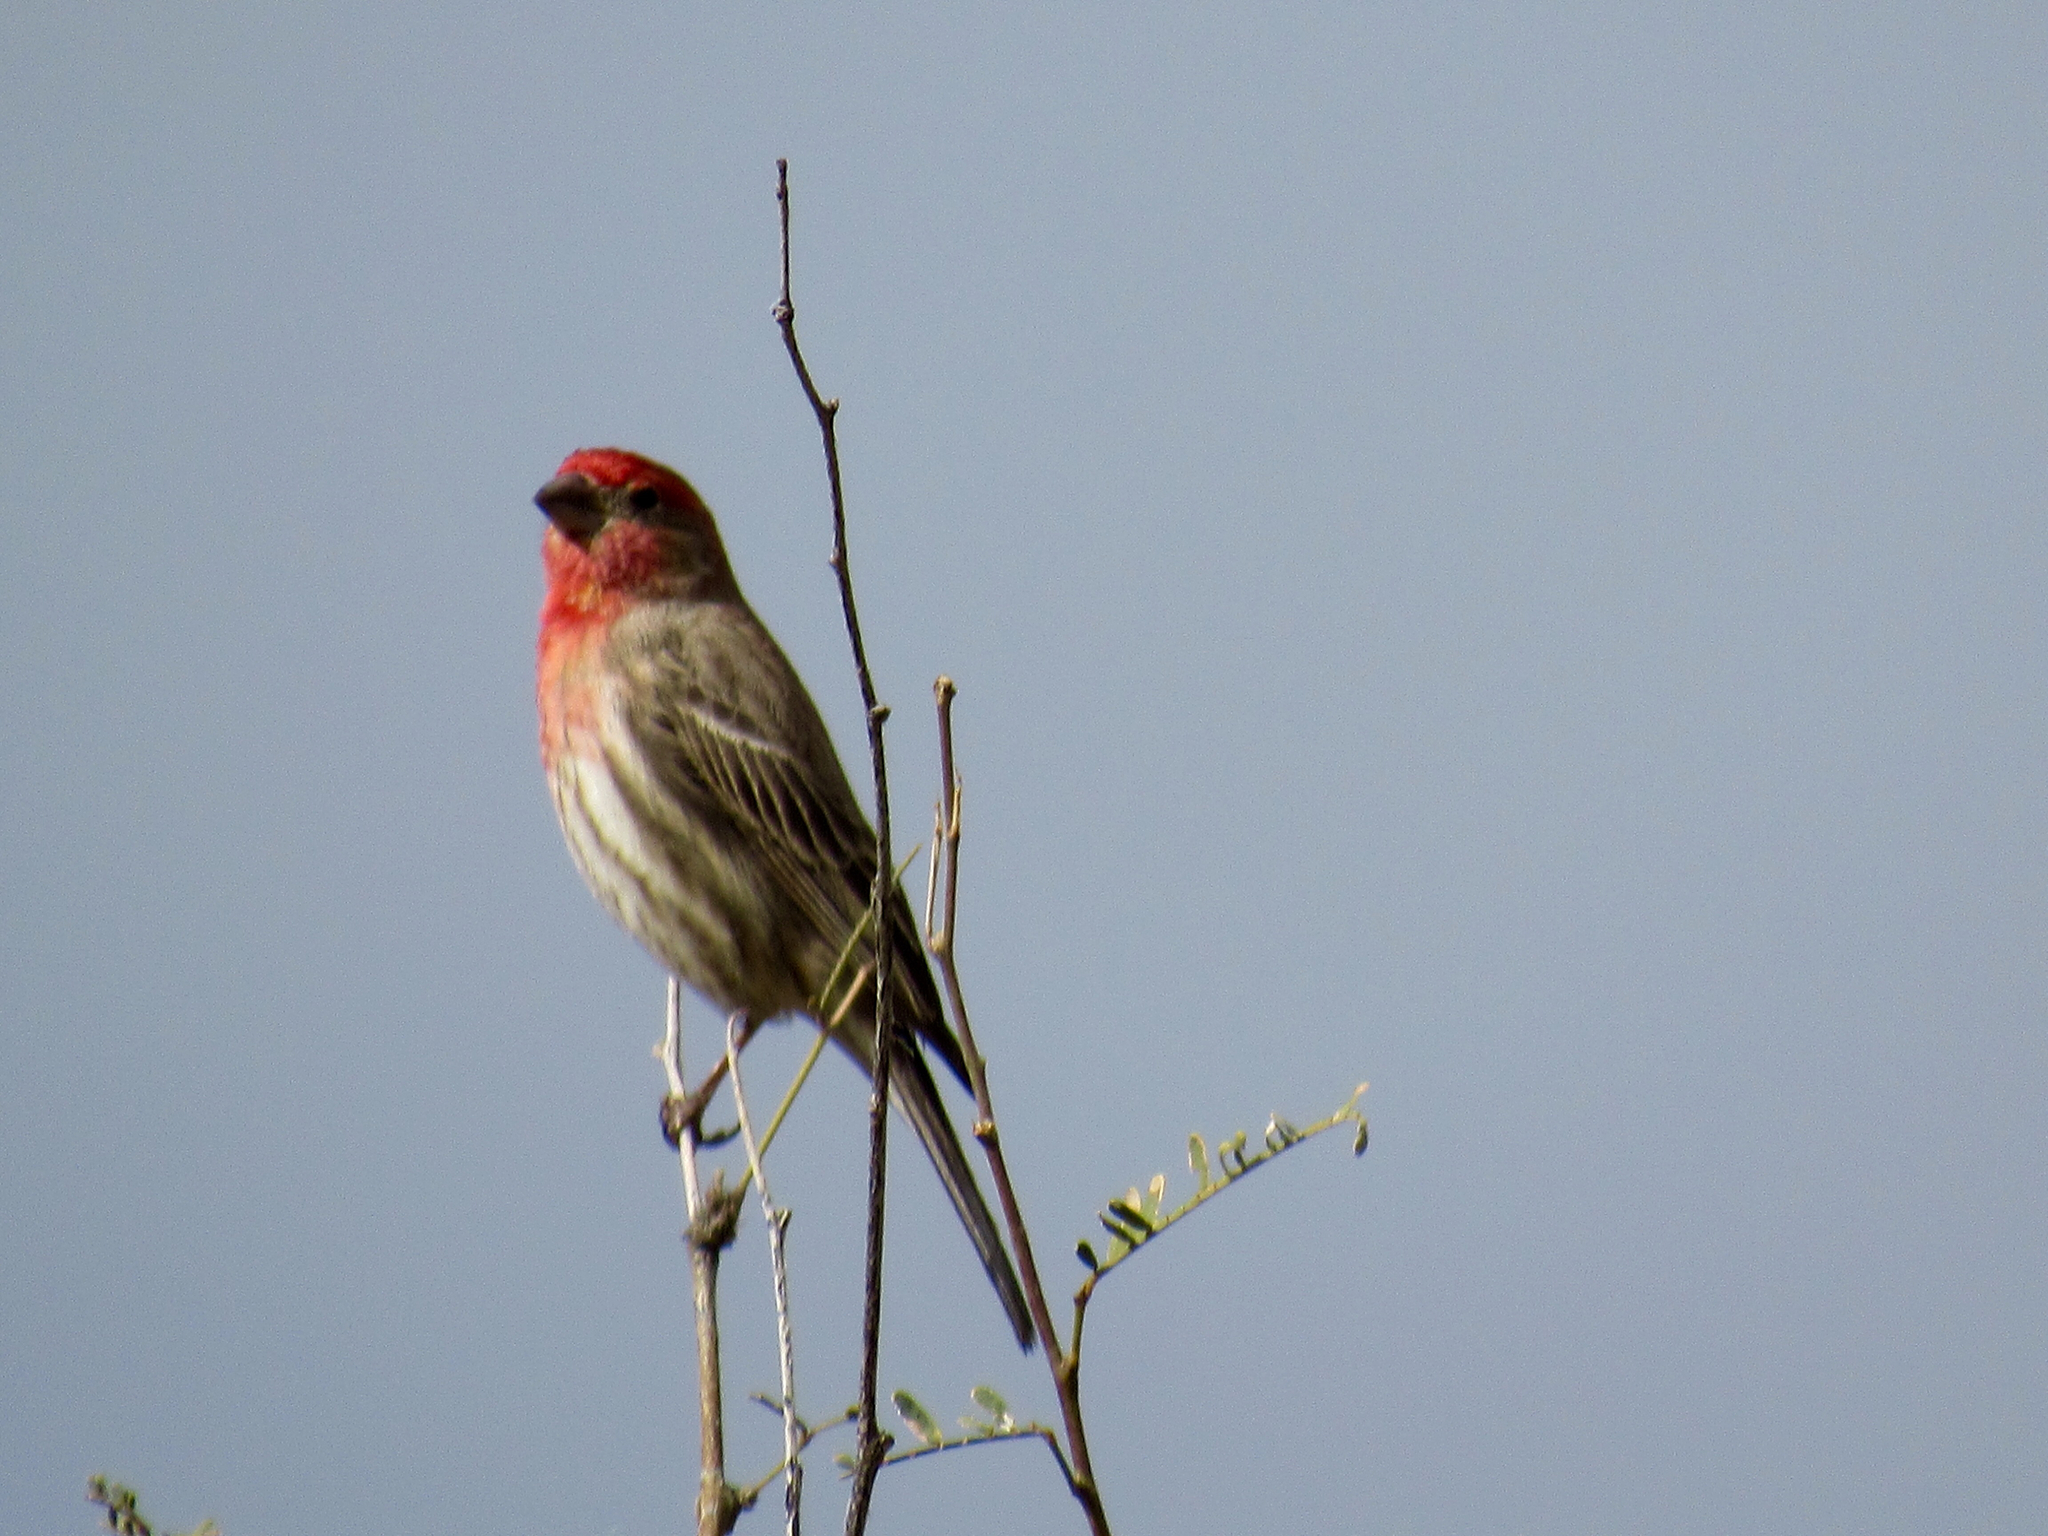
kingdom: Animalia
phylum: Chordata
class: Aves
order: Passeriformes
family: Fringillidae
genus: Haemorhous
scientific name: Haemorhous mexicanus
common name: House finch
